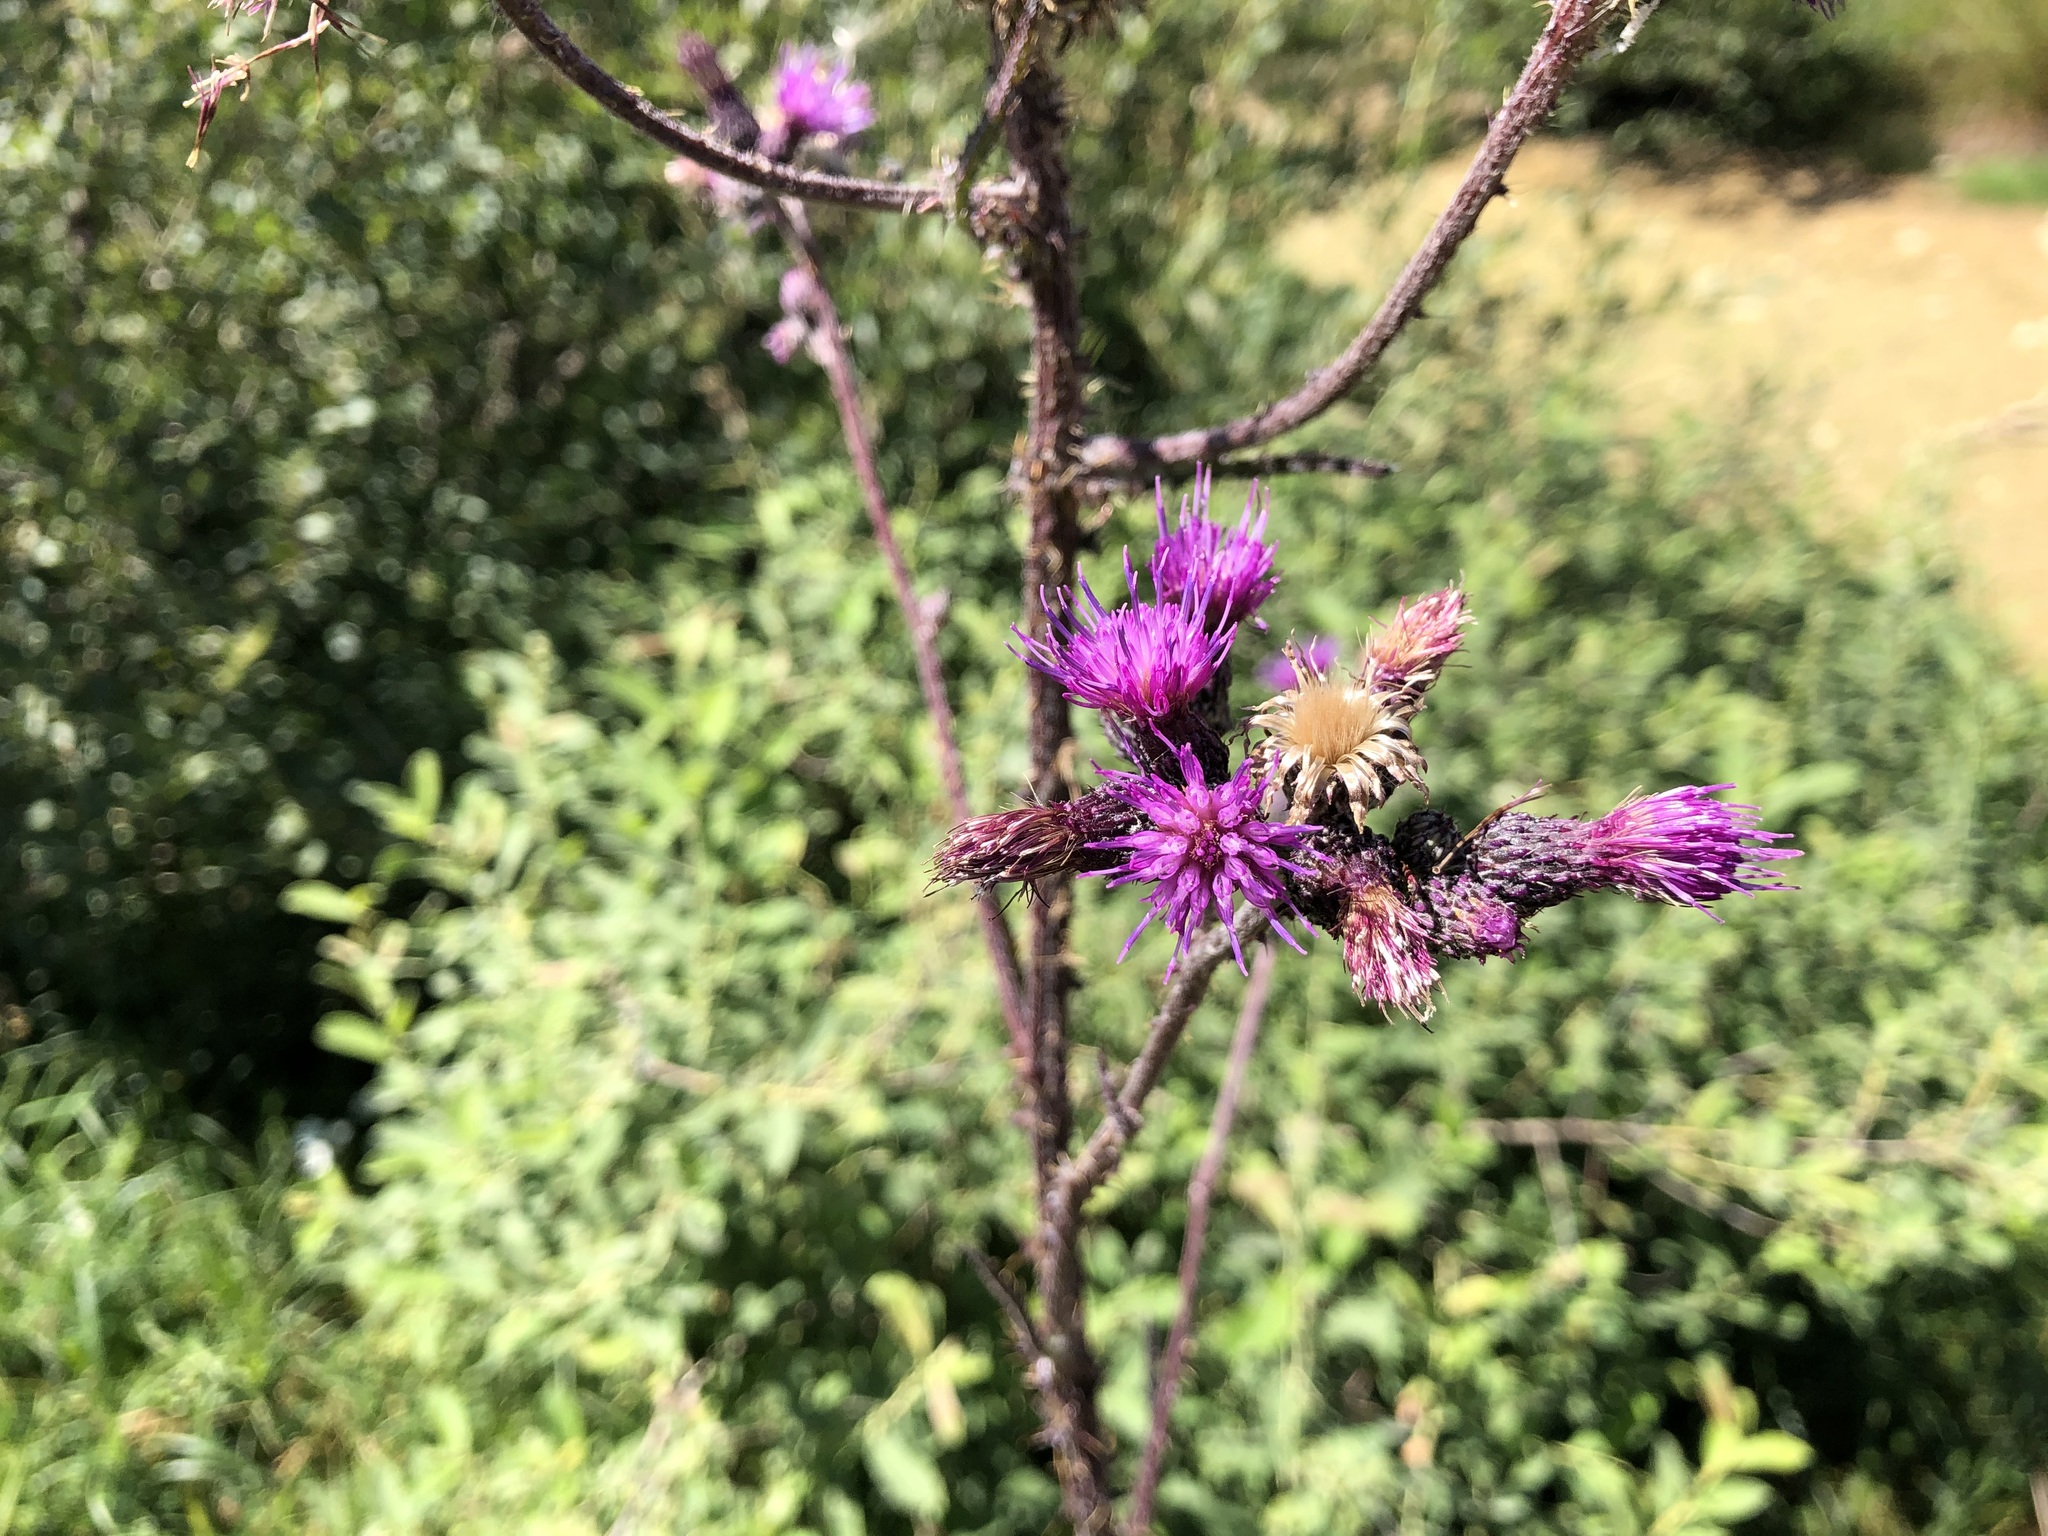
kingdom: Plantae
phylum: Tracheophyta
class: Magnoliopsida
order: Asterales
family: Asteraceae
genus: Cirsium
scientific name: Cirsium palustre
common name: Marsh thistle
